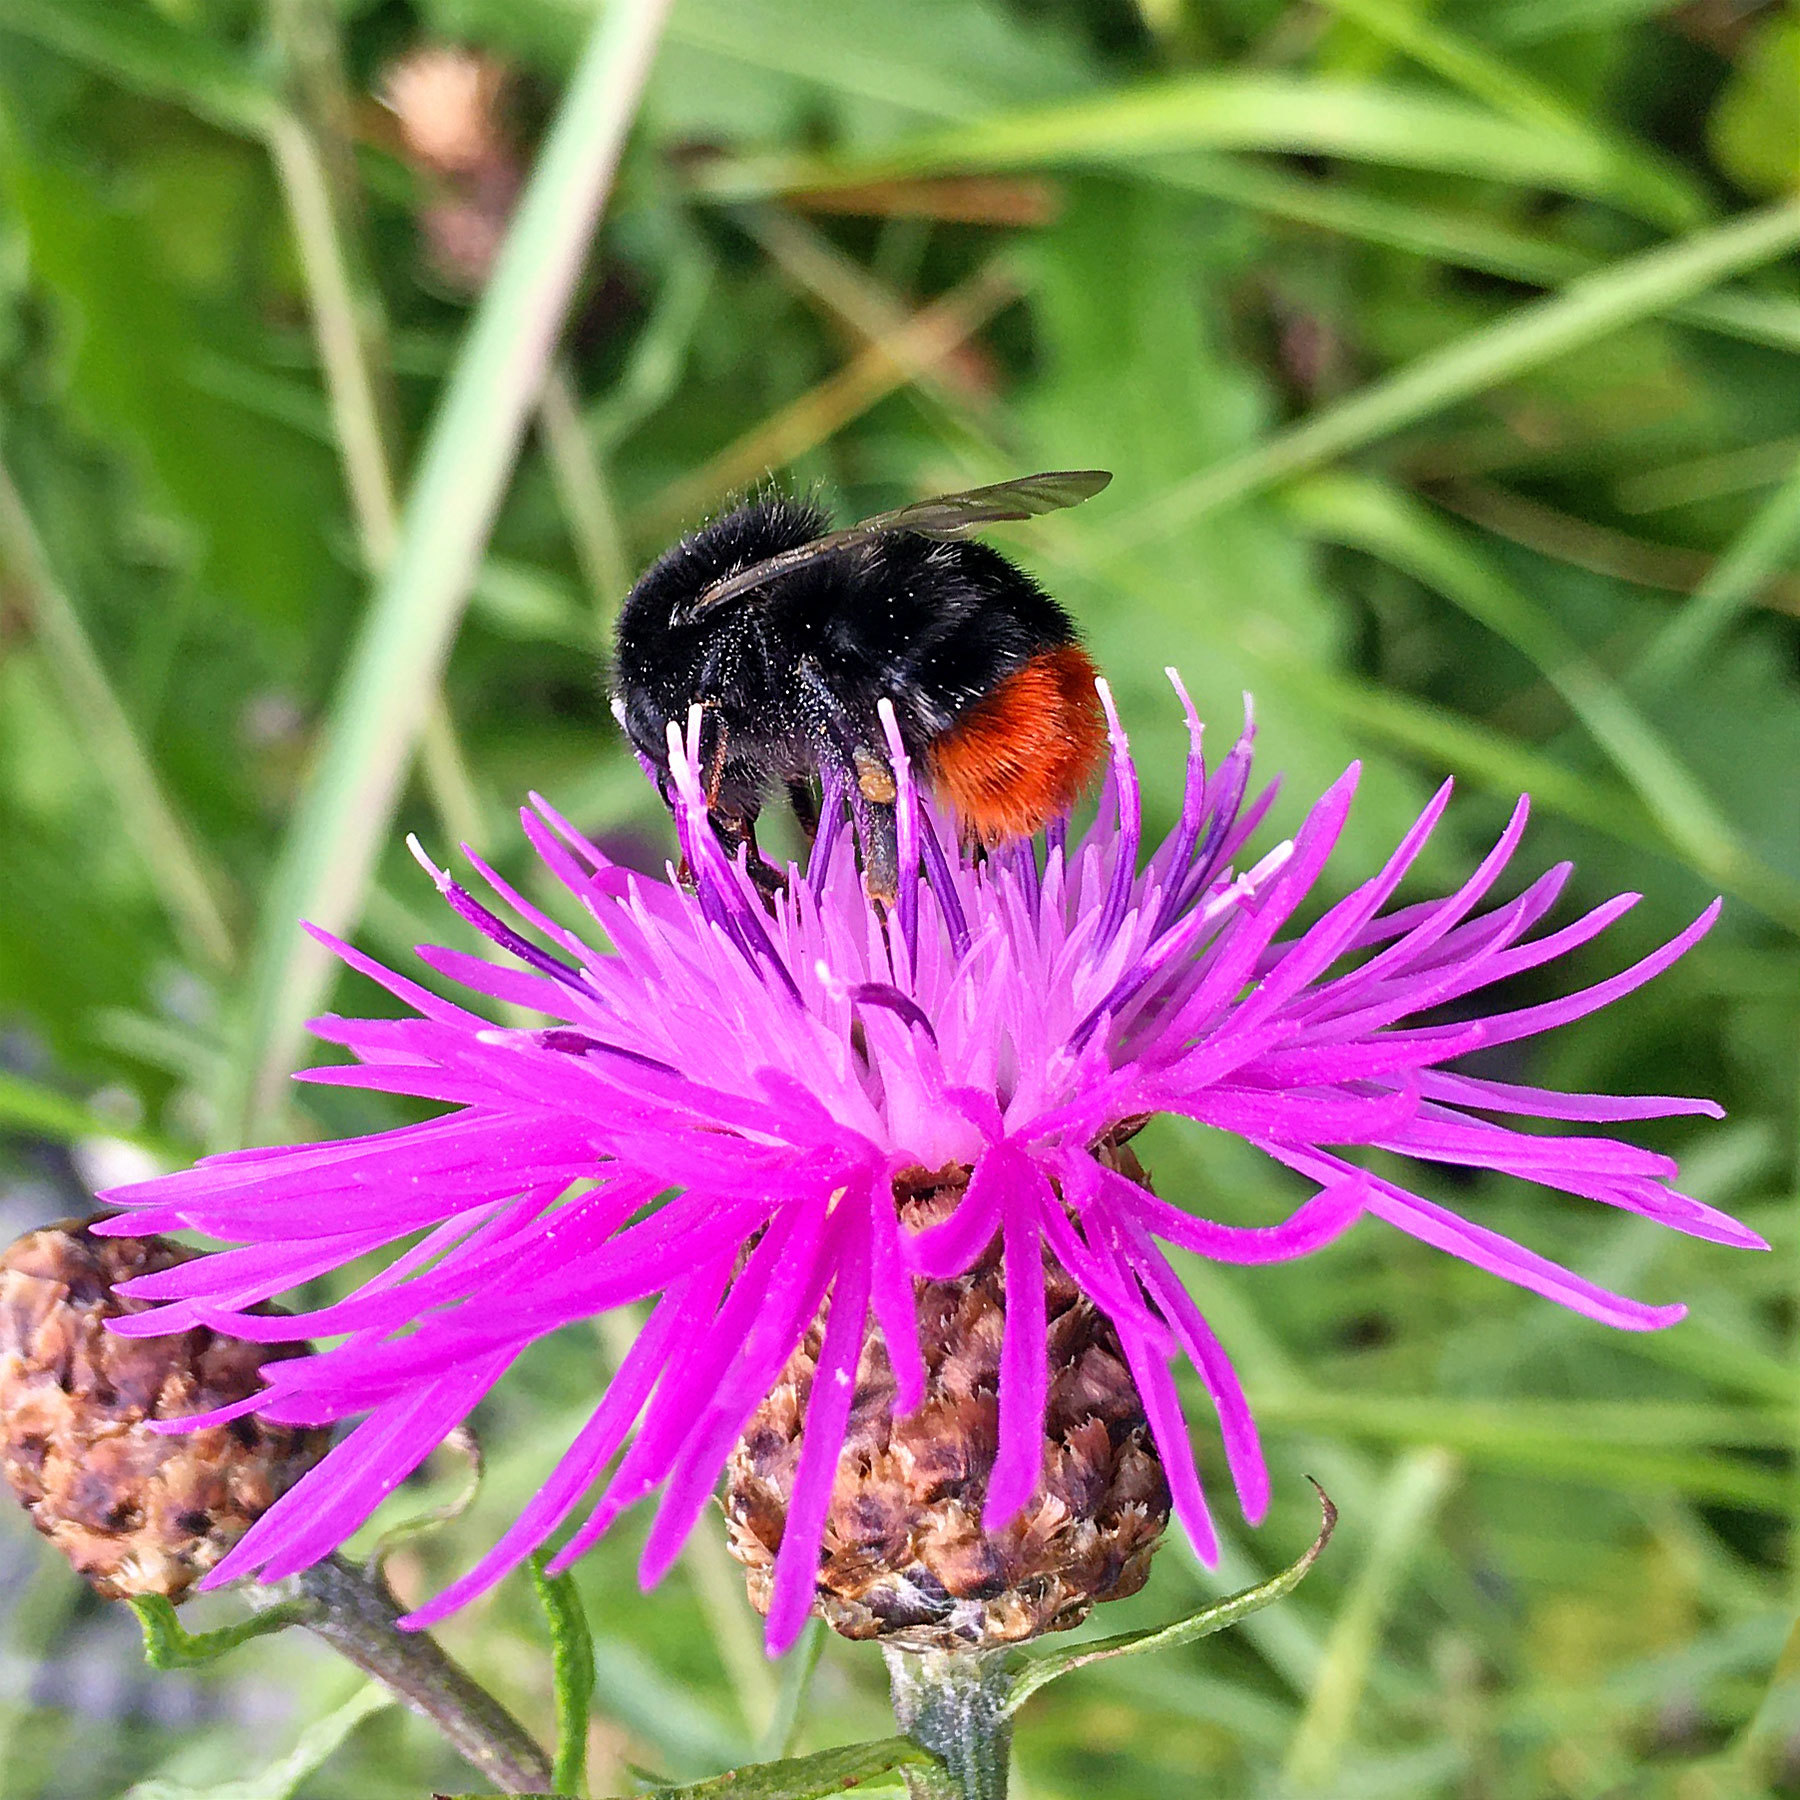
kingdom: Animalia
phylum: Arthropoda
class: Insecta
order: Hymenoptera
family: Apidae
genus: Bombus
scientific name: Bombus lapidarius
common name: Large red-tailed humble-bee
